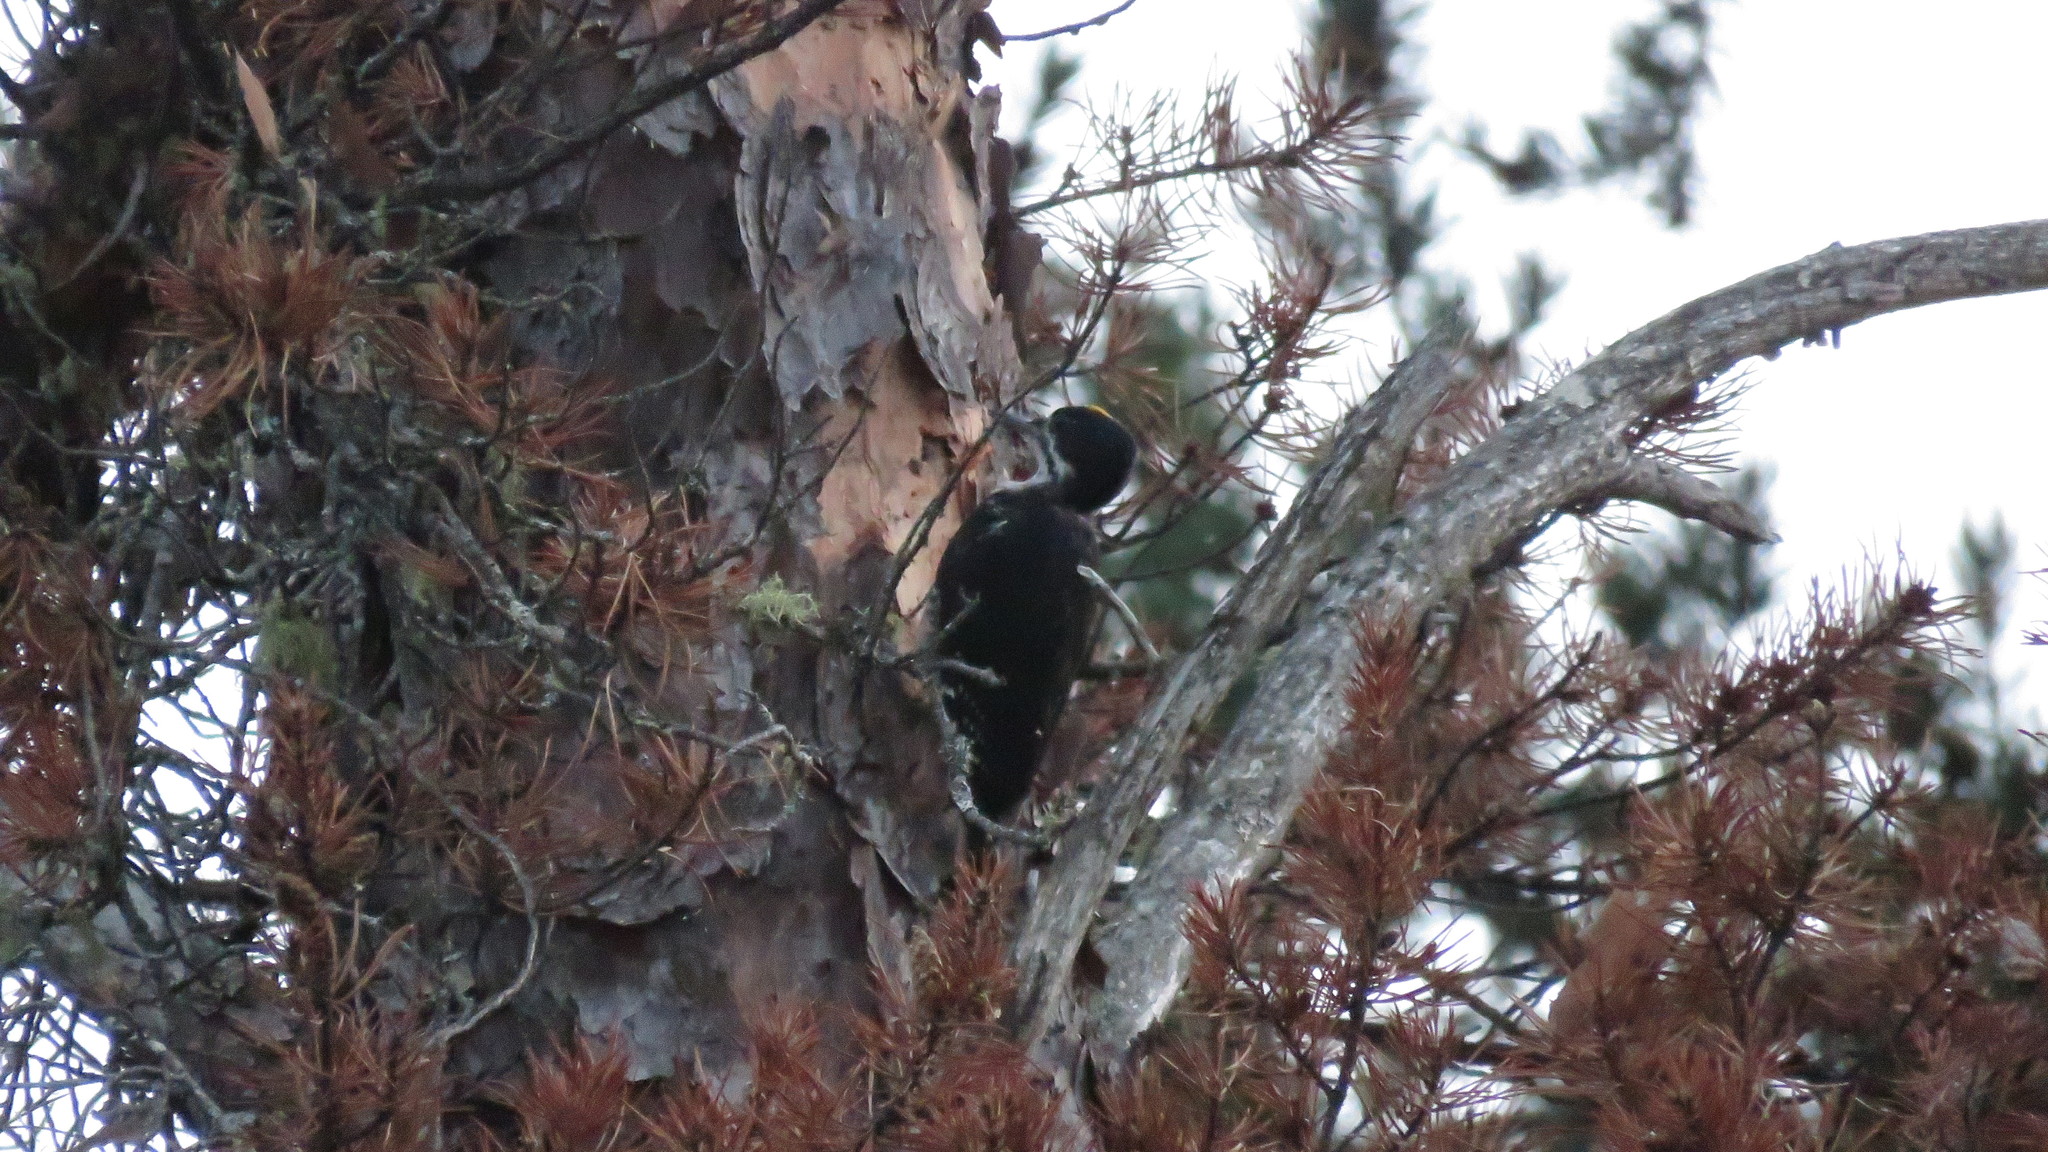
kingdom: Animalia
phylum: Chordata
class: Aves
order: Piciformes
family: Picidae
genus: Picoides
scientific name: Picoides arcticus
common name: Black-backed woodpecker
